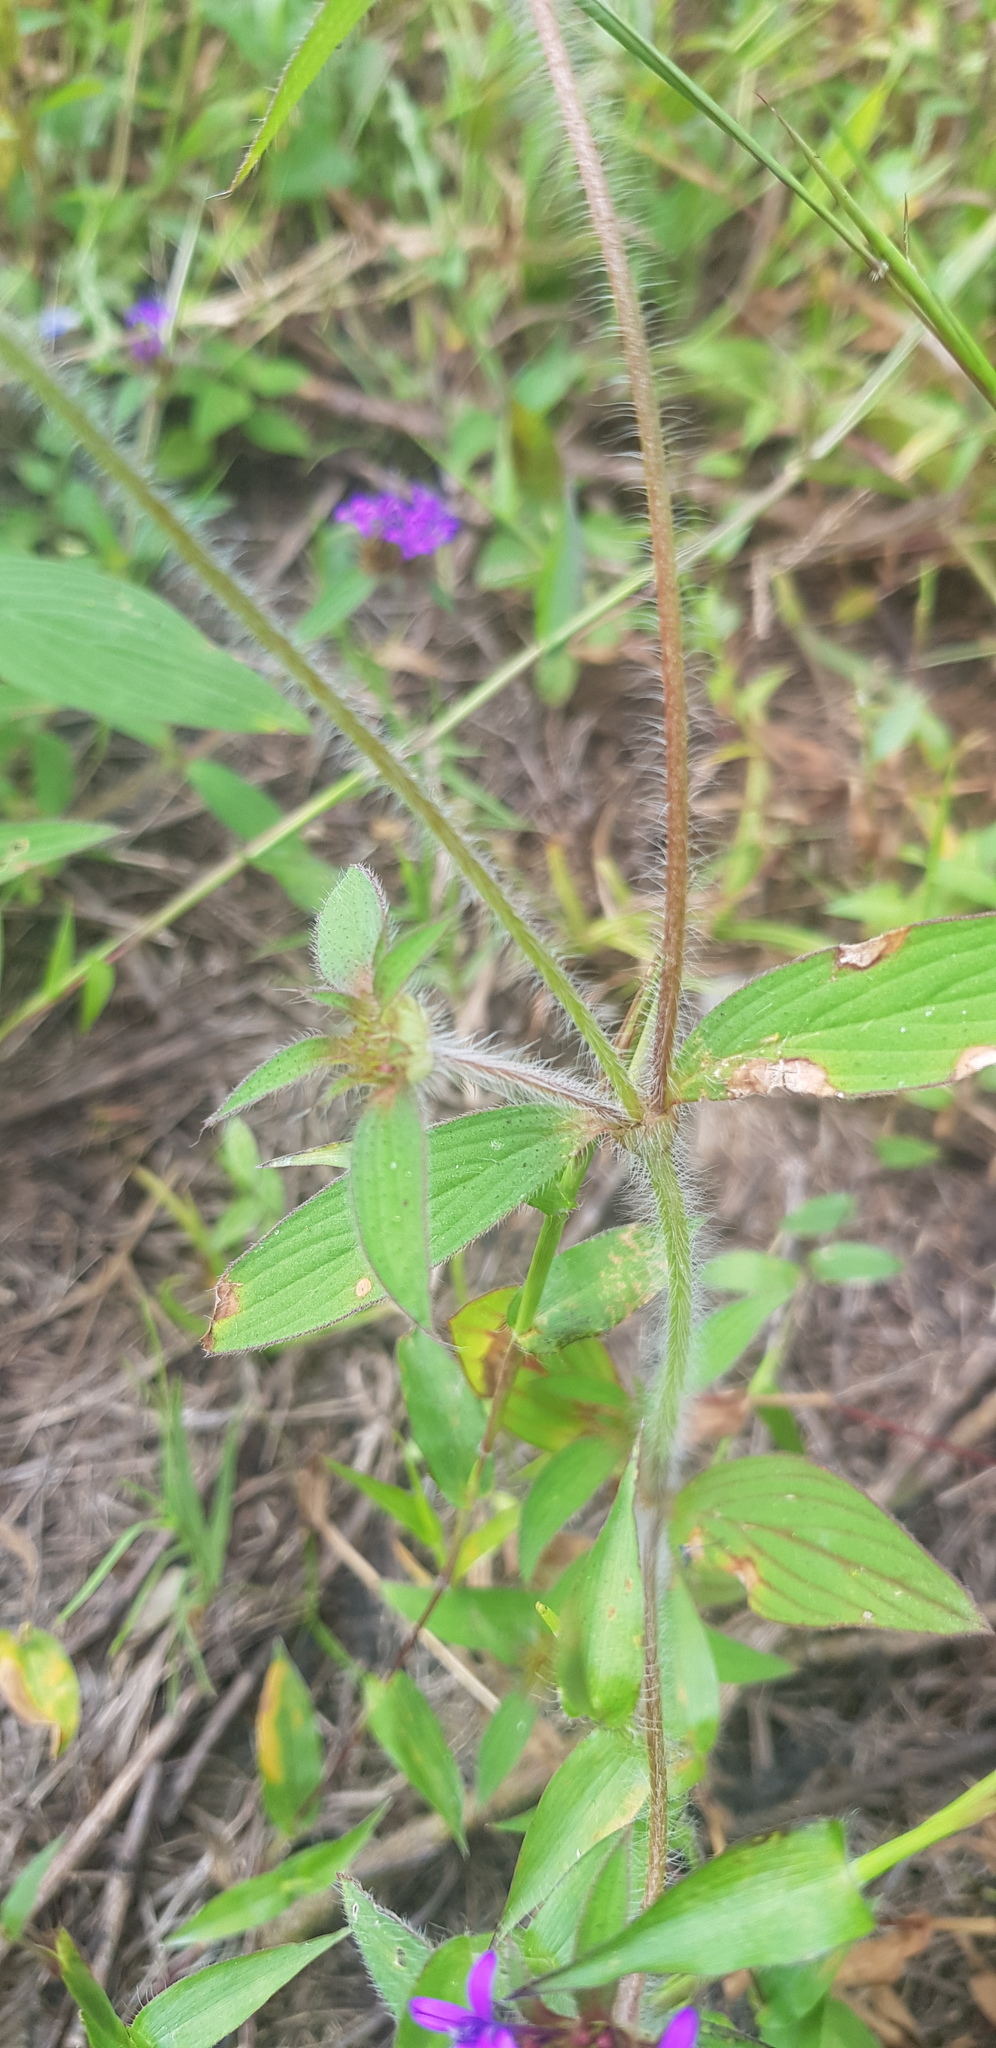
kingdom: Plantae
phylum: Tracheophyta
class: Magnoliopsida
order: Gentianales
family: Rubiaceae
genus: Crusea
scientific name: Crusea hispida
